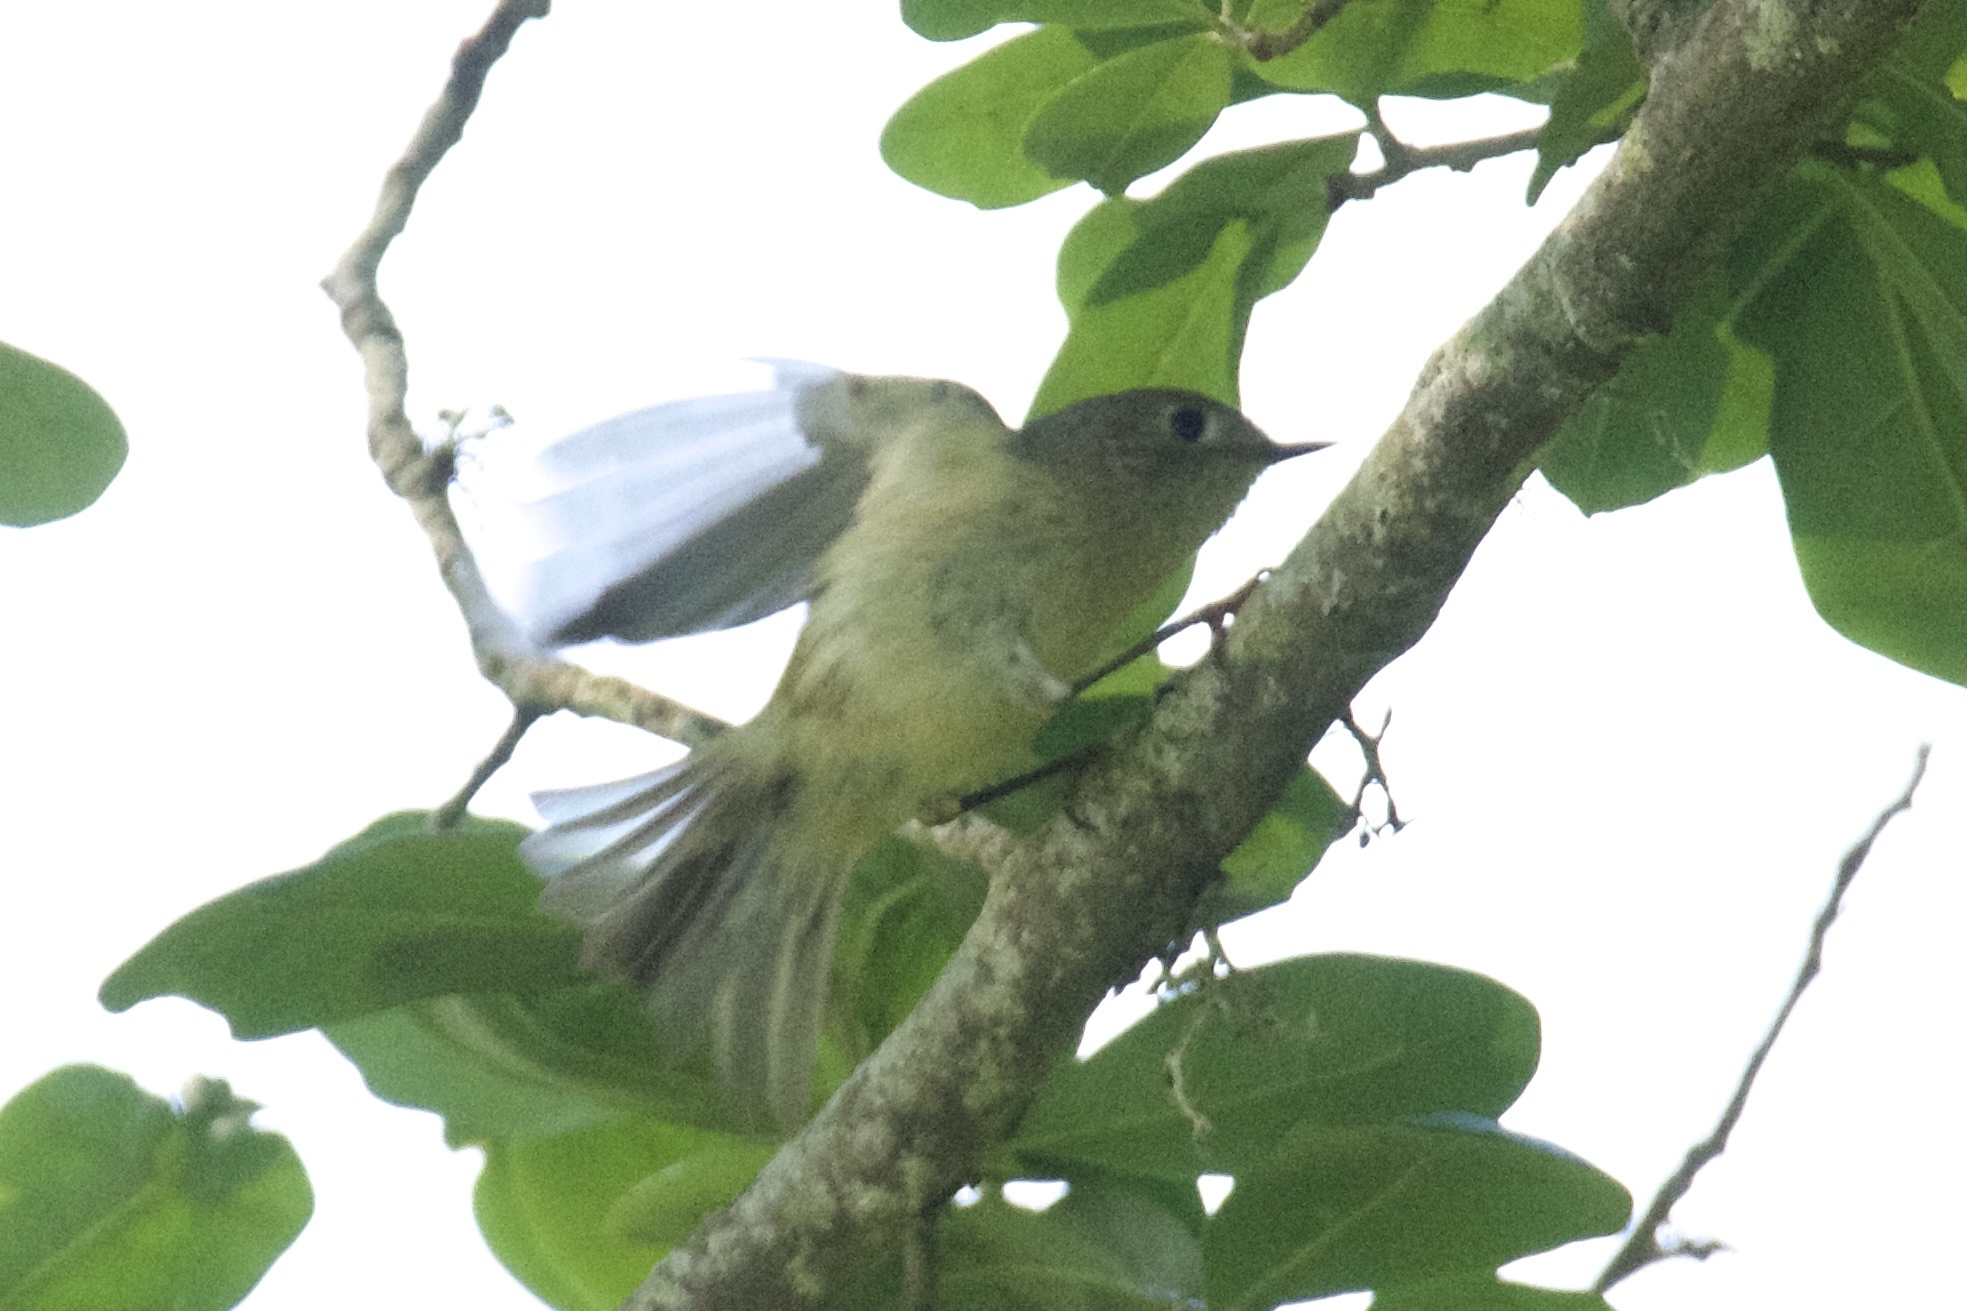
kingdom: Animalia
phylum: Chordata
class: Aves
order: Passeriformes
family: Regulidae
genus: Regulus
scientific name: Regulus calendula
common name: Ruby-crowned kinglet
